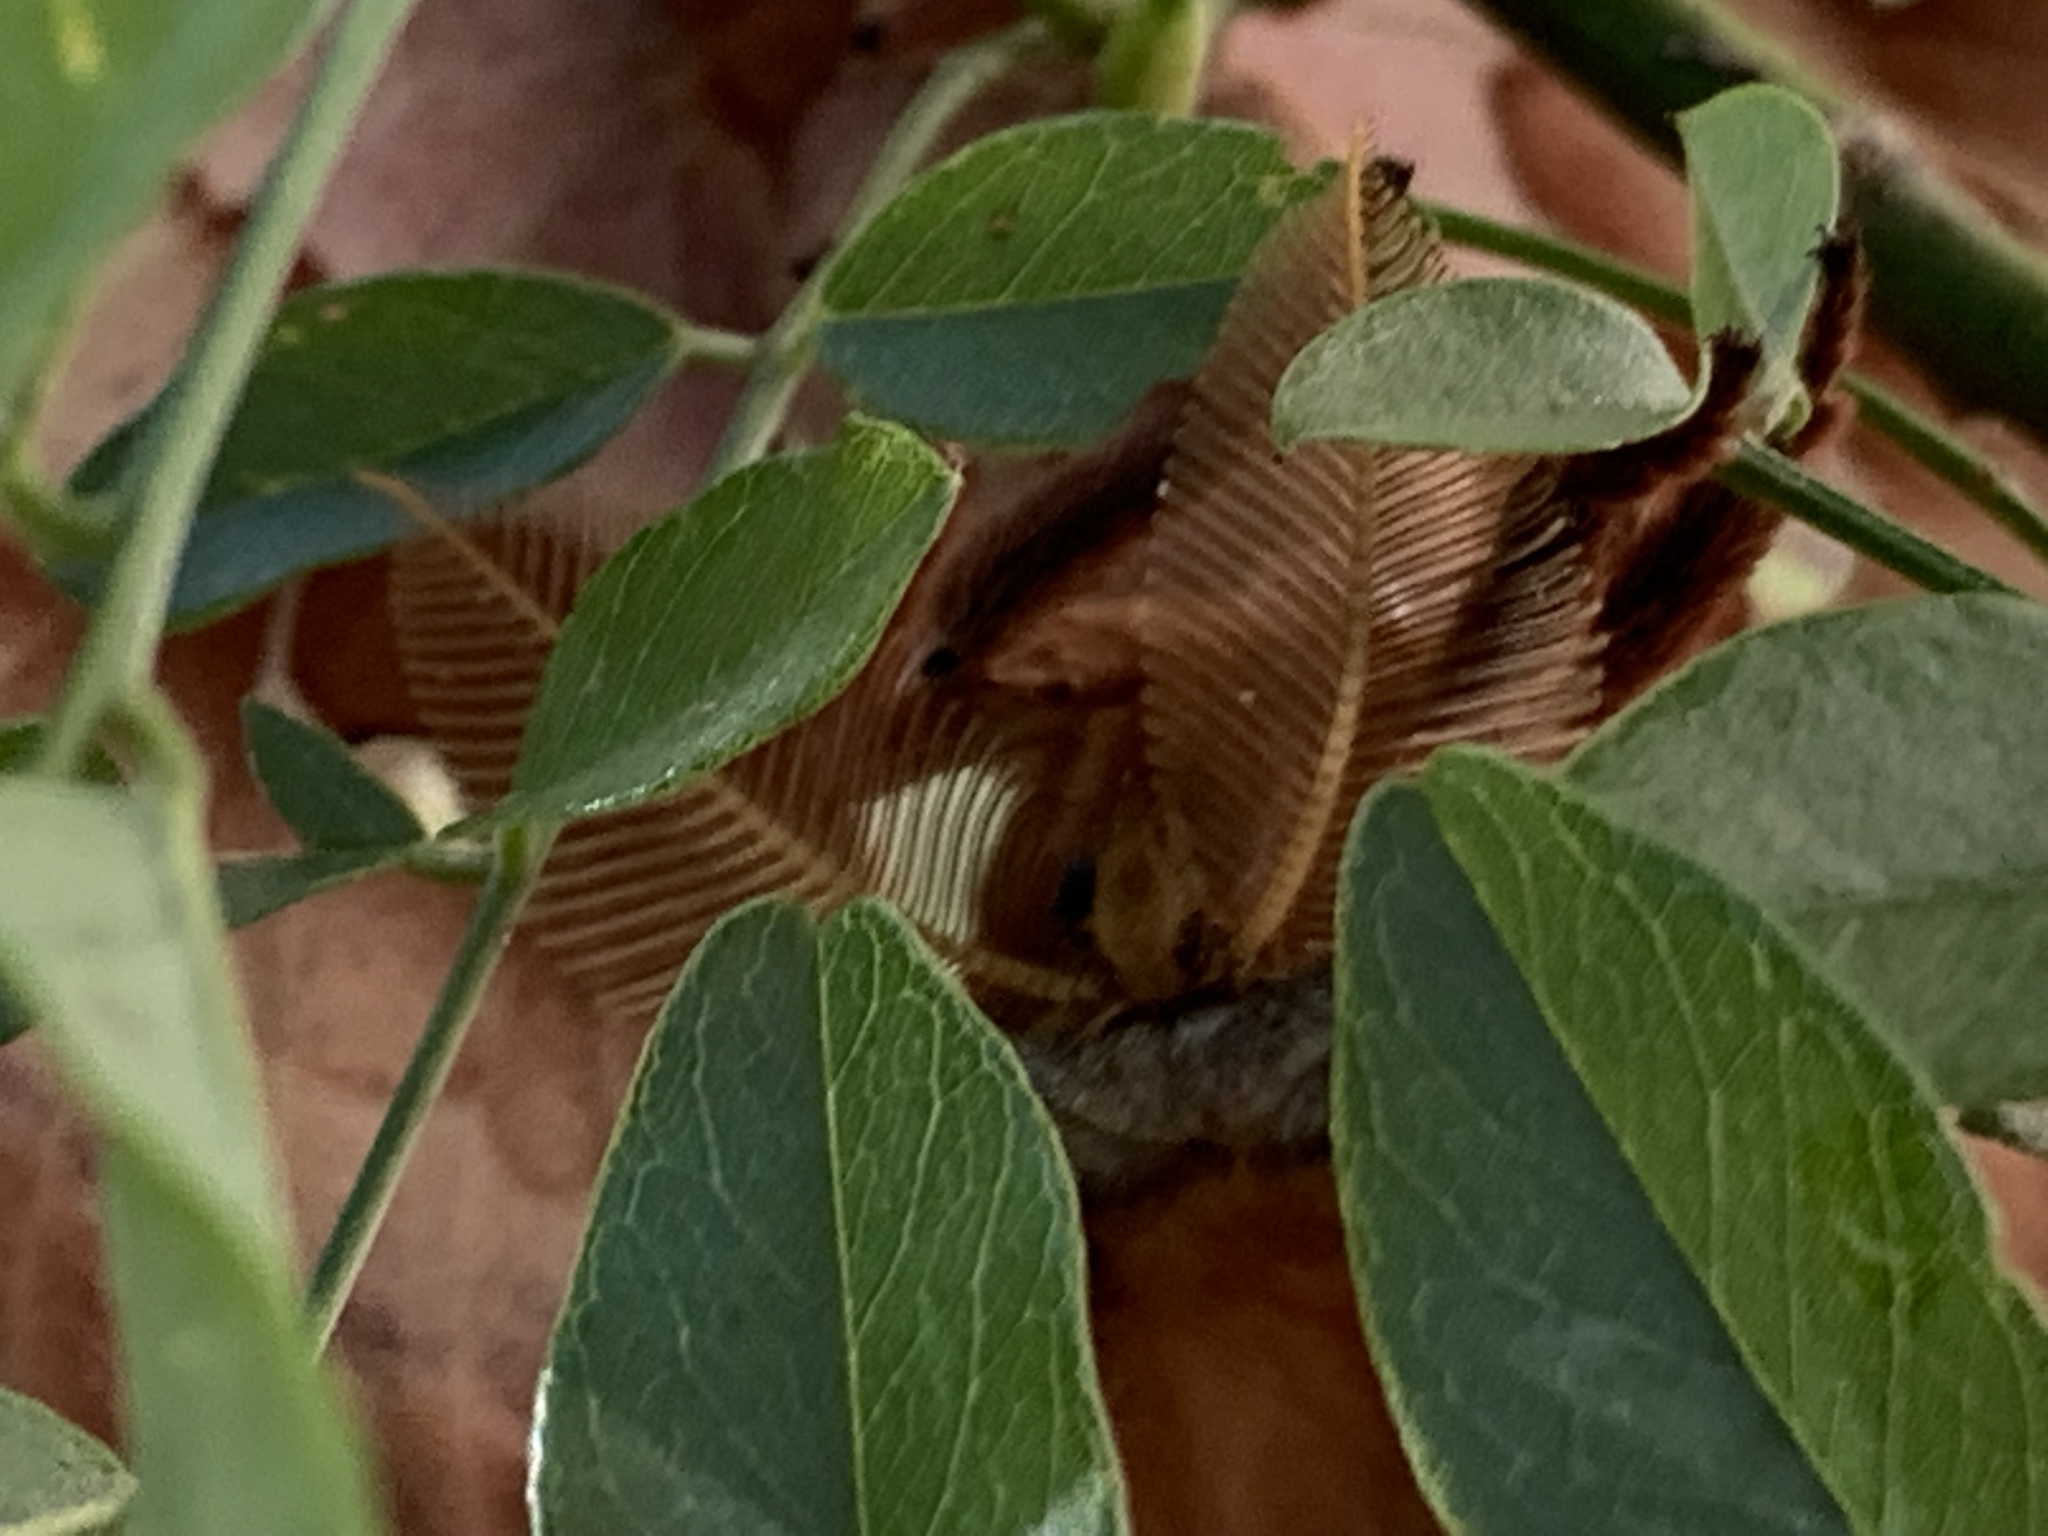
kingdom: Animalia
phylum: Arthropoda
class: Insecta
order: Lepidoptera
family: Saturniidae
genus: Antheraea
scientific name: Antheraea polyphemus
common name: Polyphemus moth
